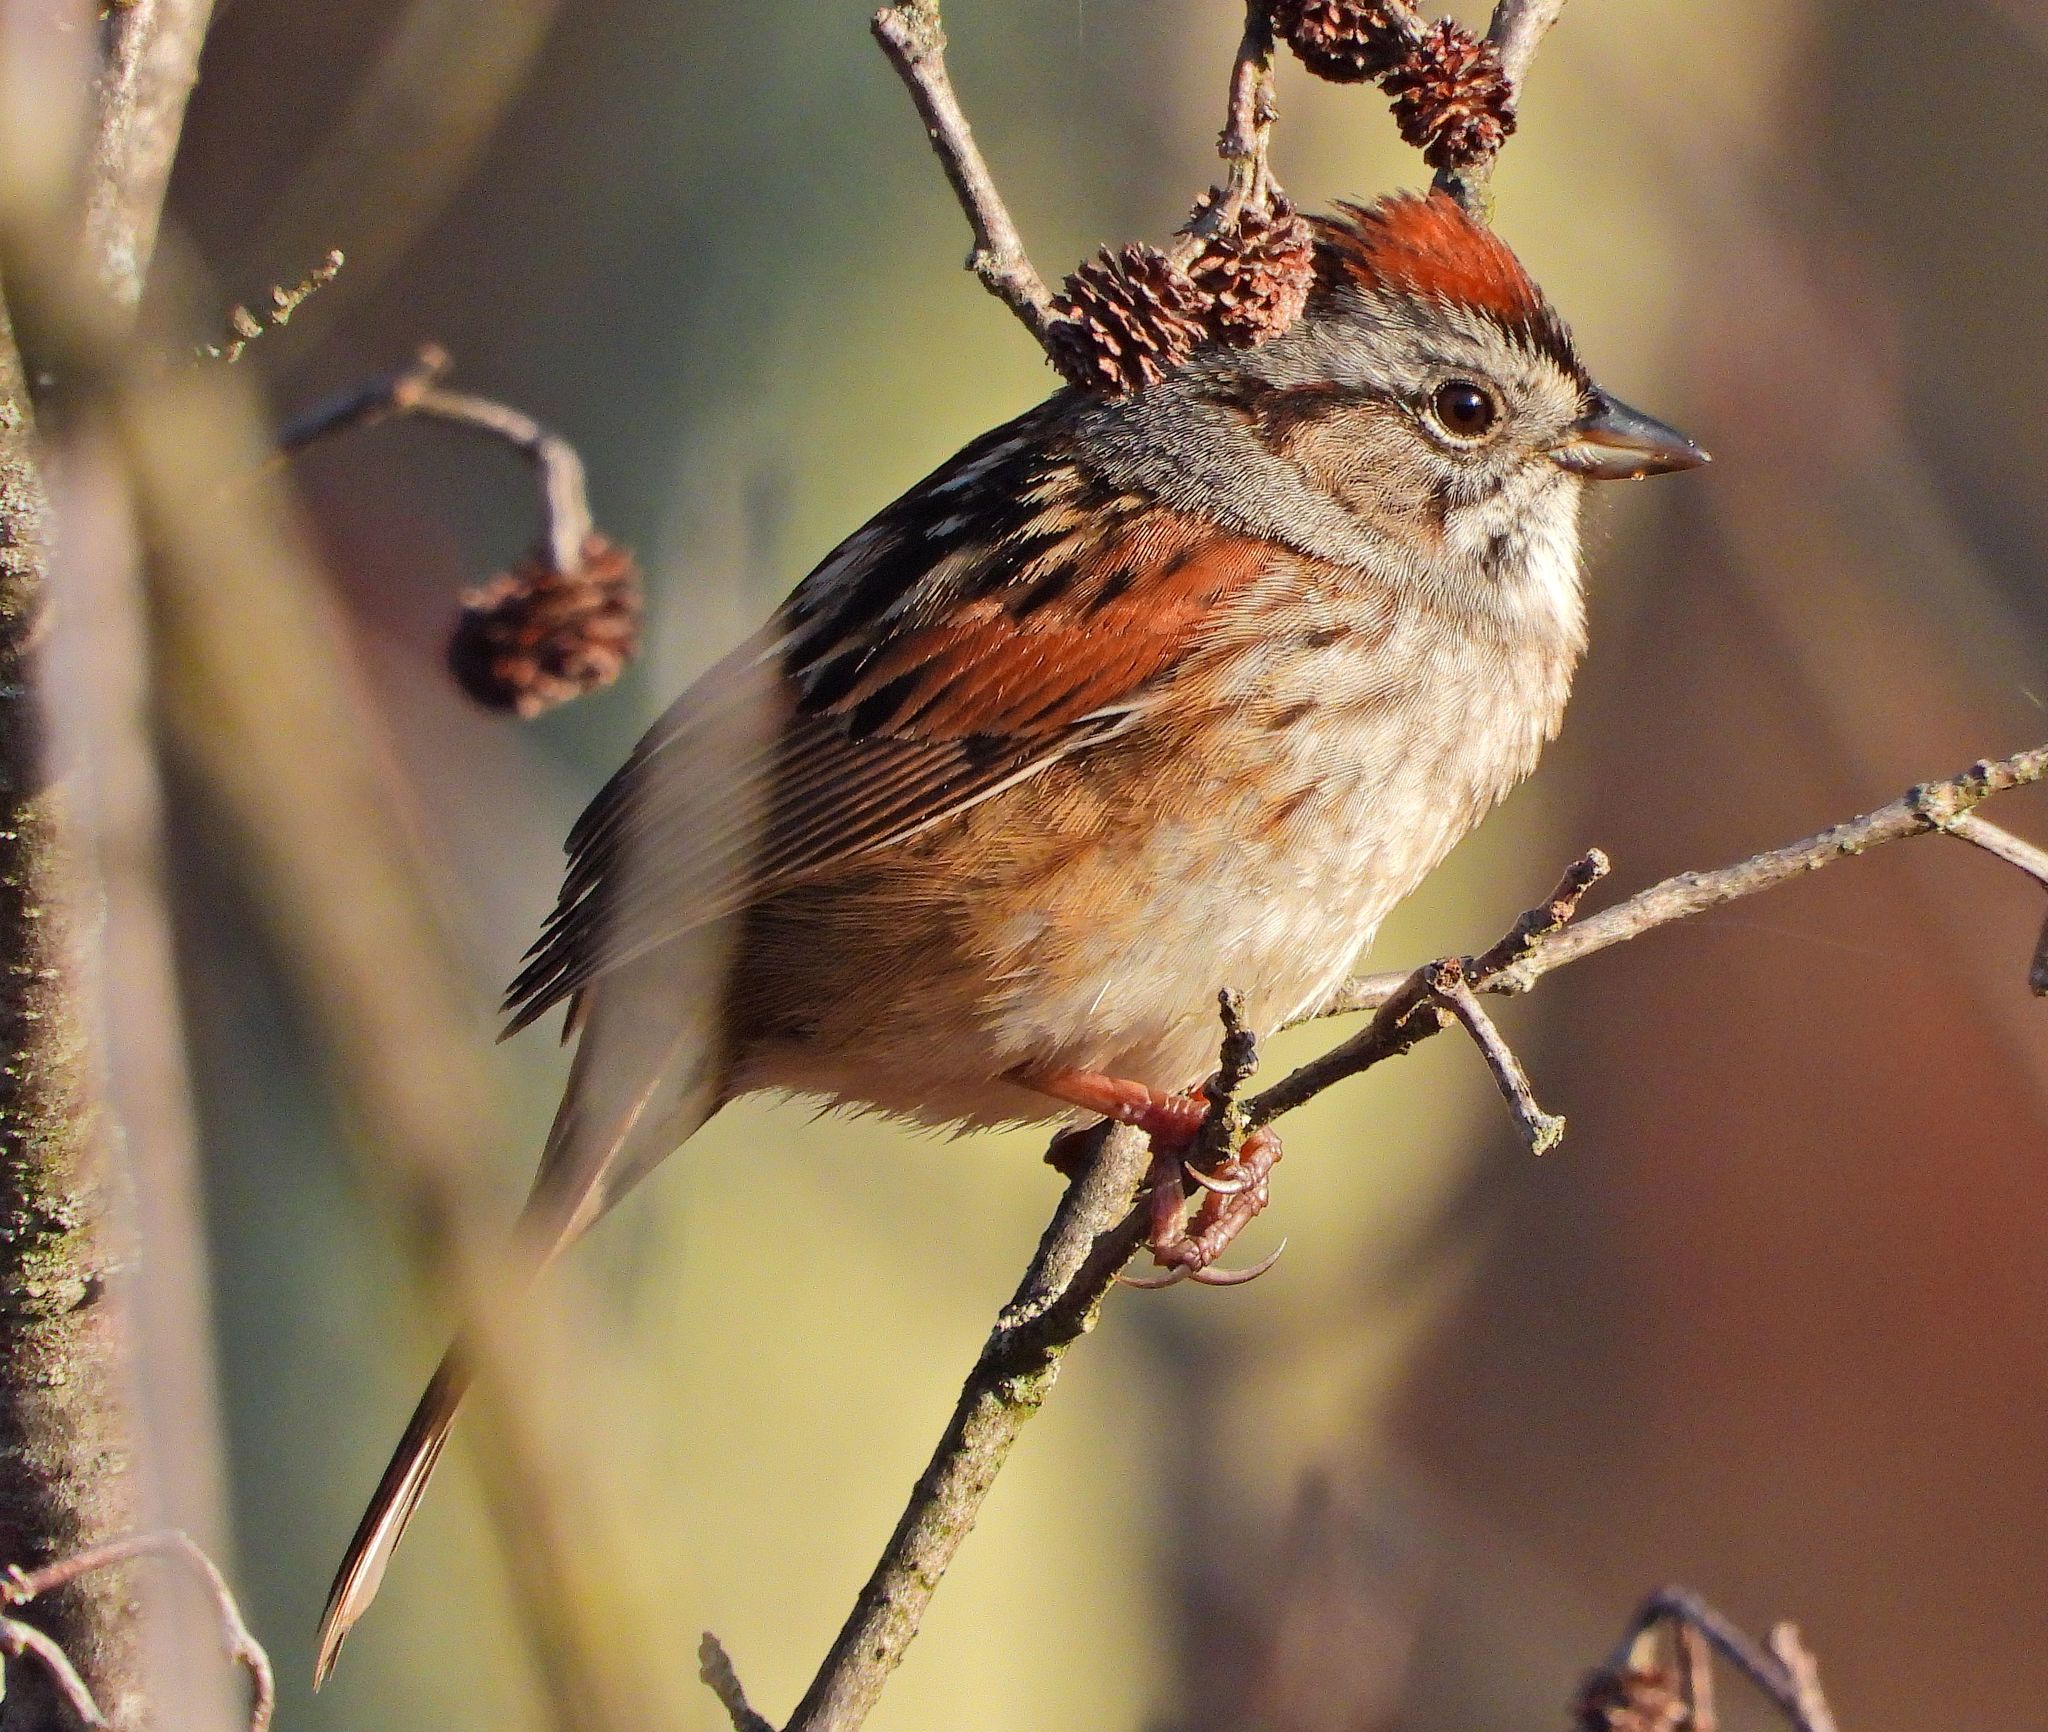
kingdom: Animalia
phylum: Chordata
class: Aves
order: Passeriformes
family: Passerellidae
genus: Melospiza
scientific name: Melospiza georgiana
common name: Swamp sparrow
